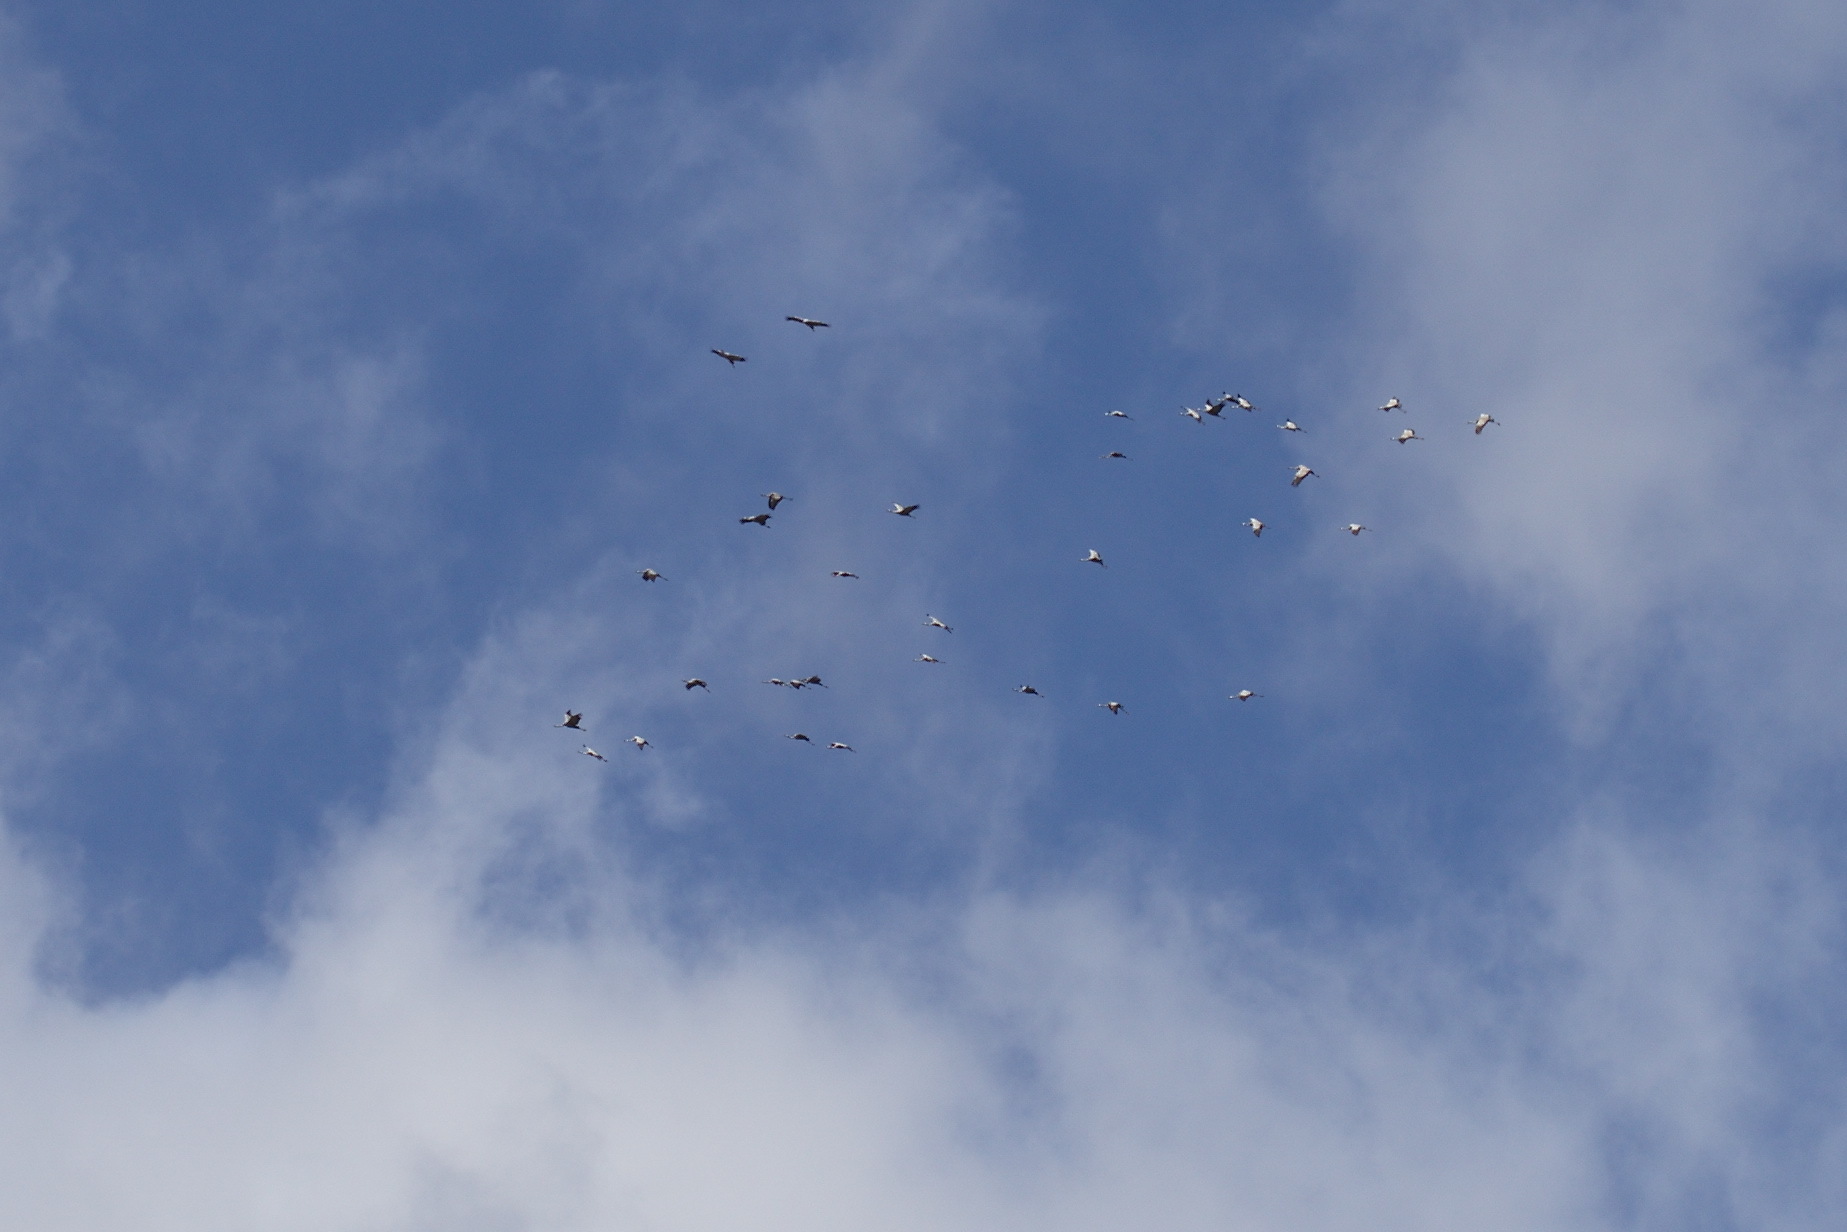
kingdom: Animalia
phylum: Chordata
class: Aves
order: Gruiformes
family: Gruidae
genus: Grus
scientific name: Grus grus
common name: Common crane
